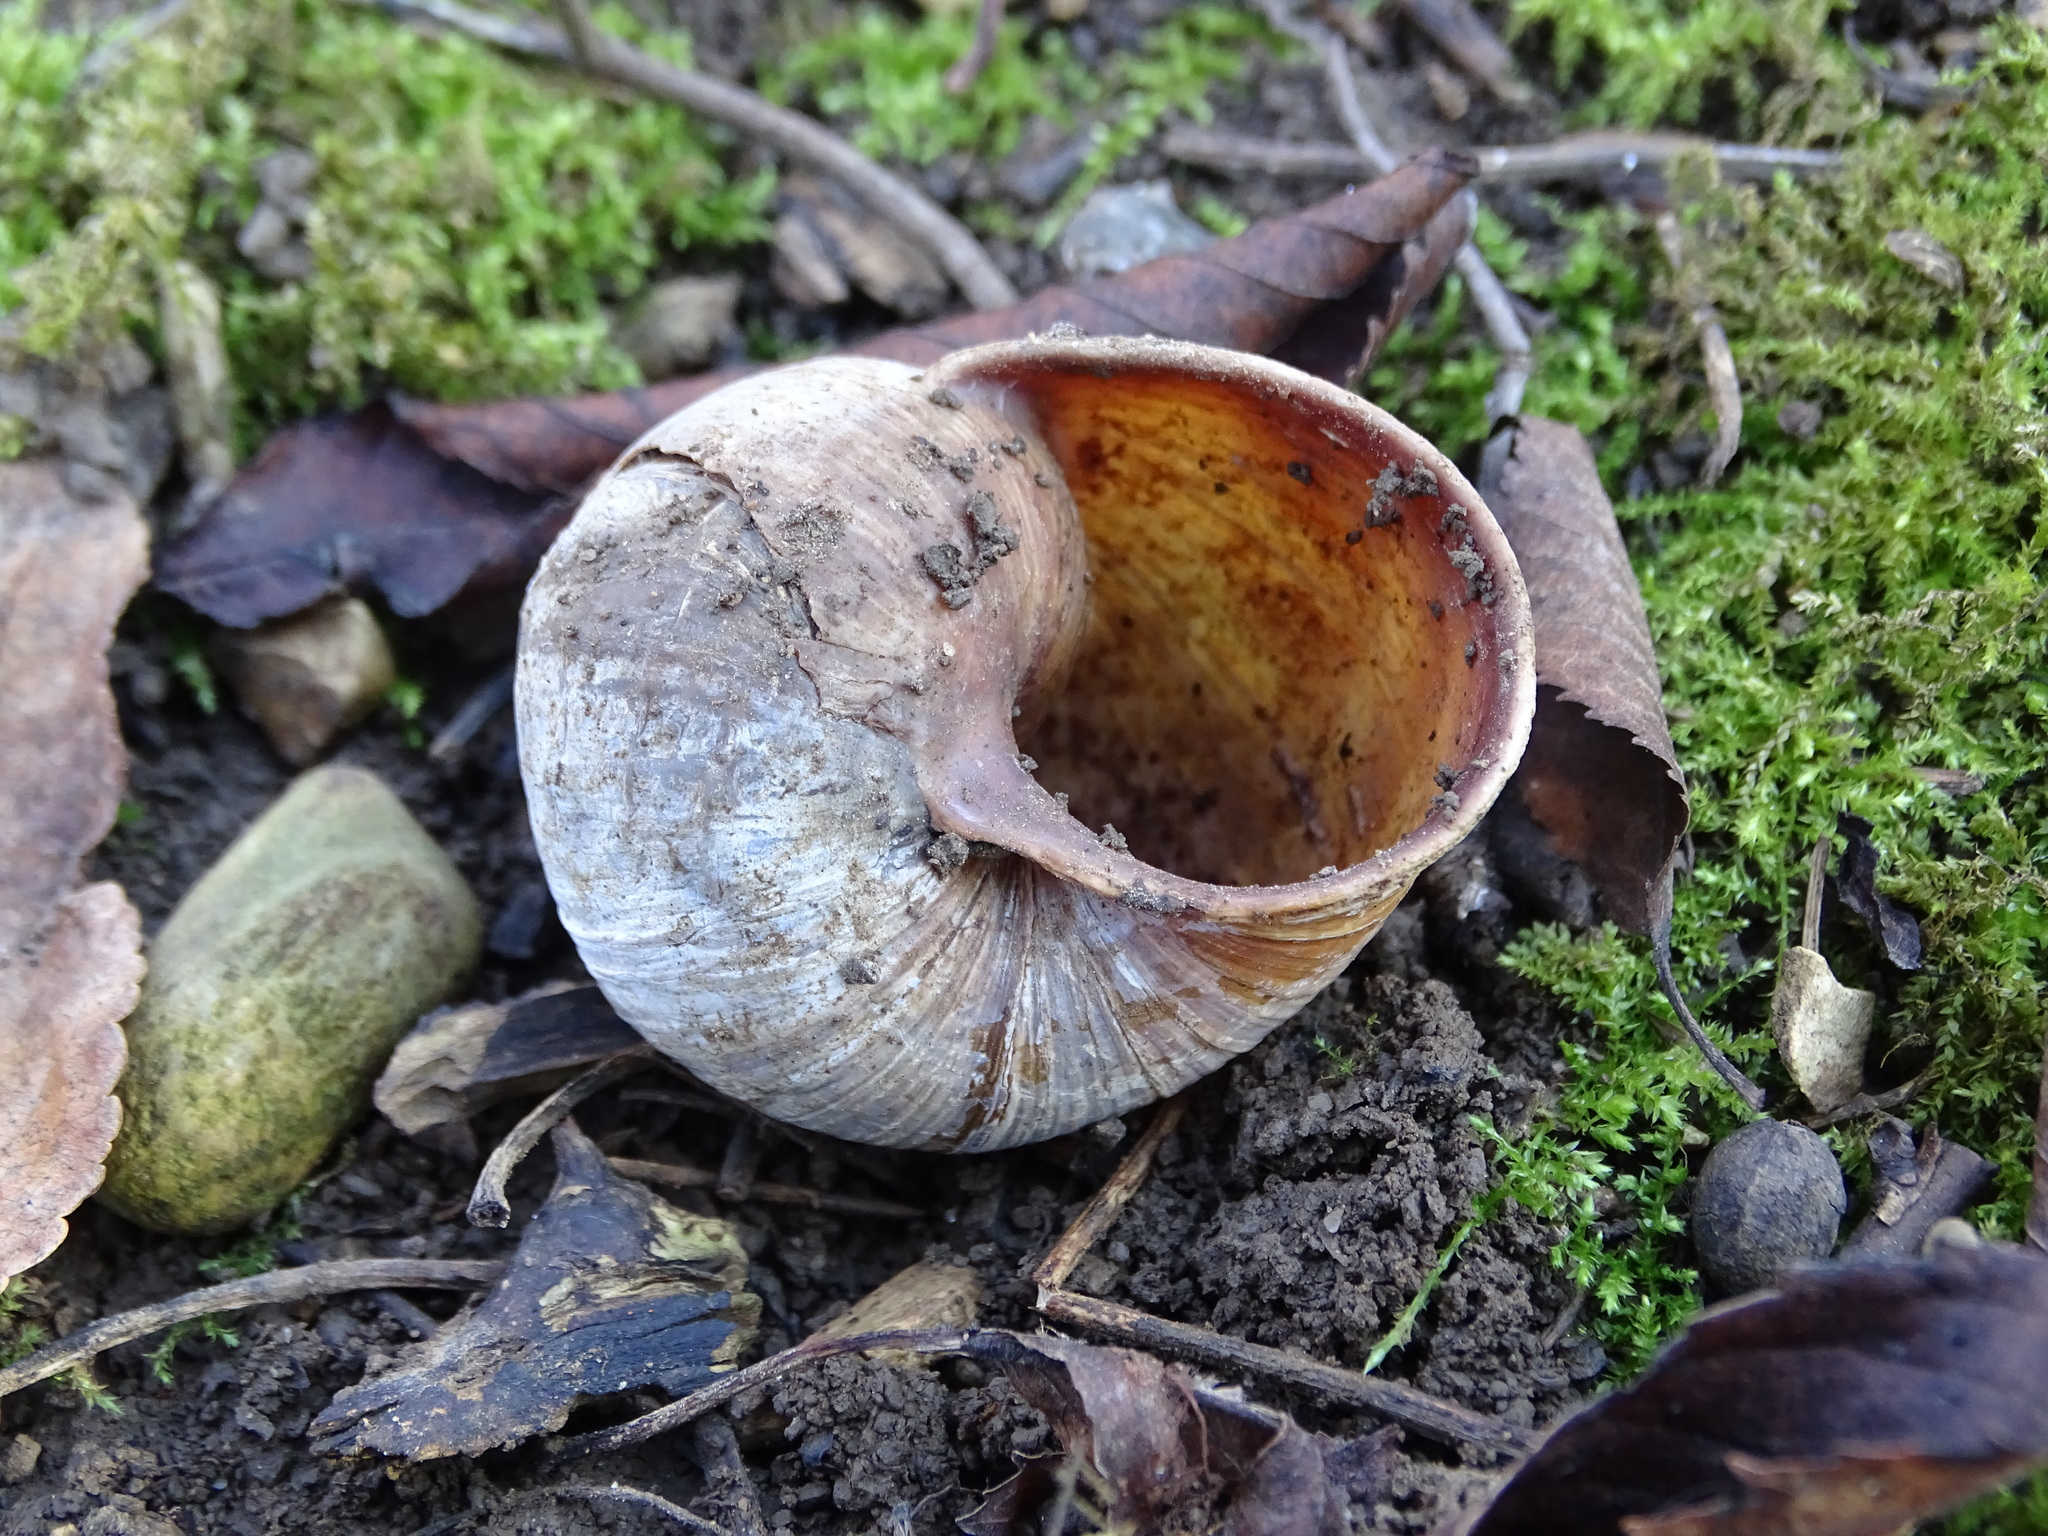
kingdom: Animalia
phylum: Mollusca
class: Gastropoda
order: Stylommatophora
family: Helicidae
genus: Helix
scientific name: Helix pomatia
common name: Roman snail
